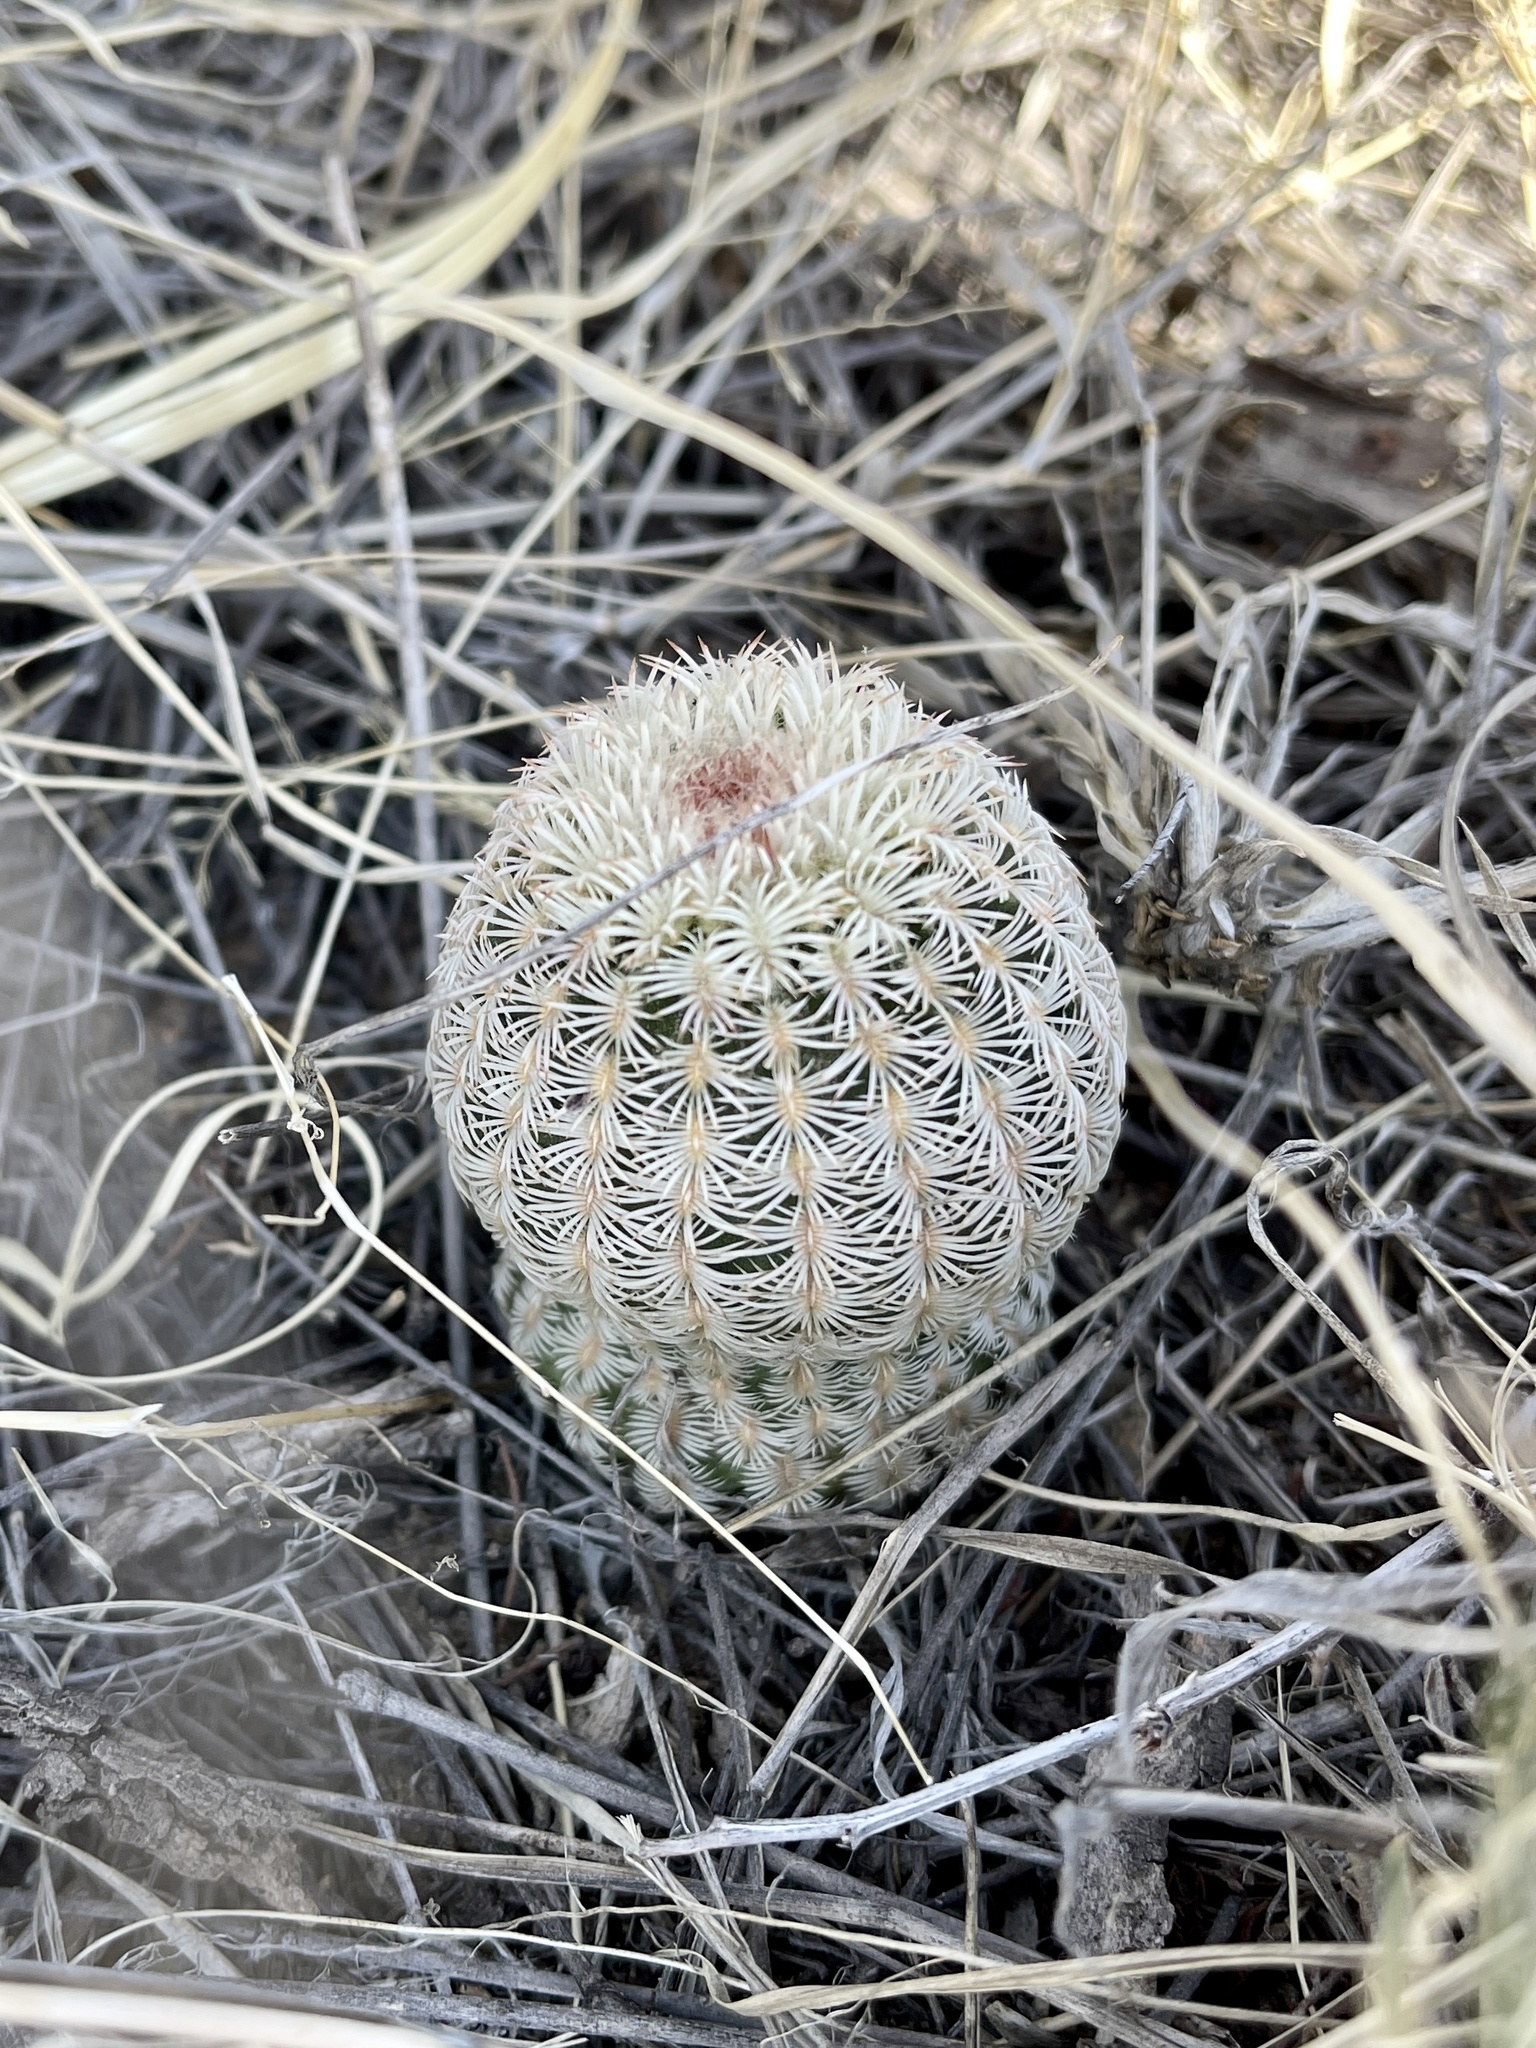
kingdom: Plantae
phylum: Tracheophyta
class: Magnoliopsida
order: Caryophyllales
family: Cactaceae
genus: Echinocereus
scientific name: Echinocereus rigidissimus
